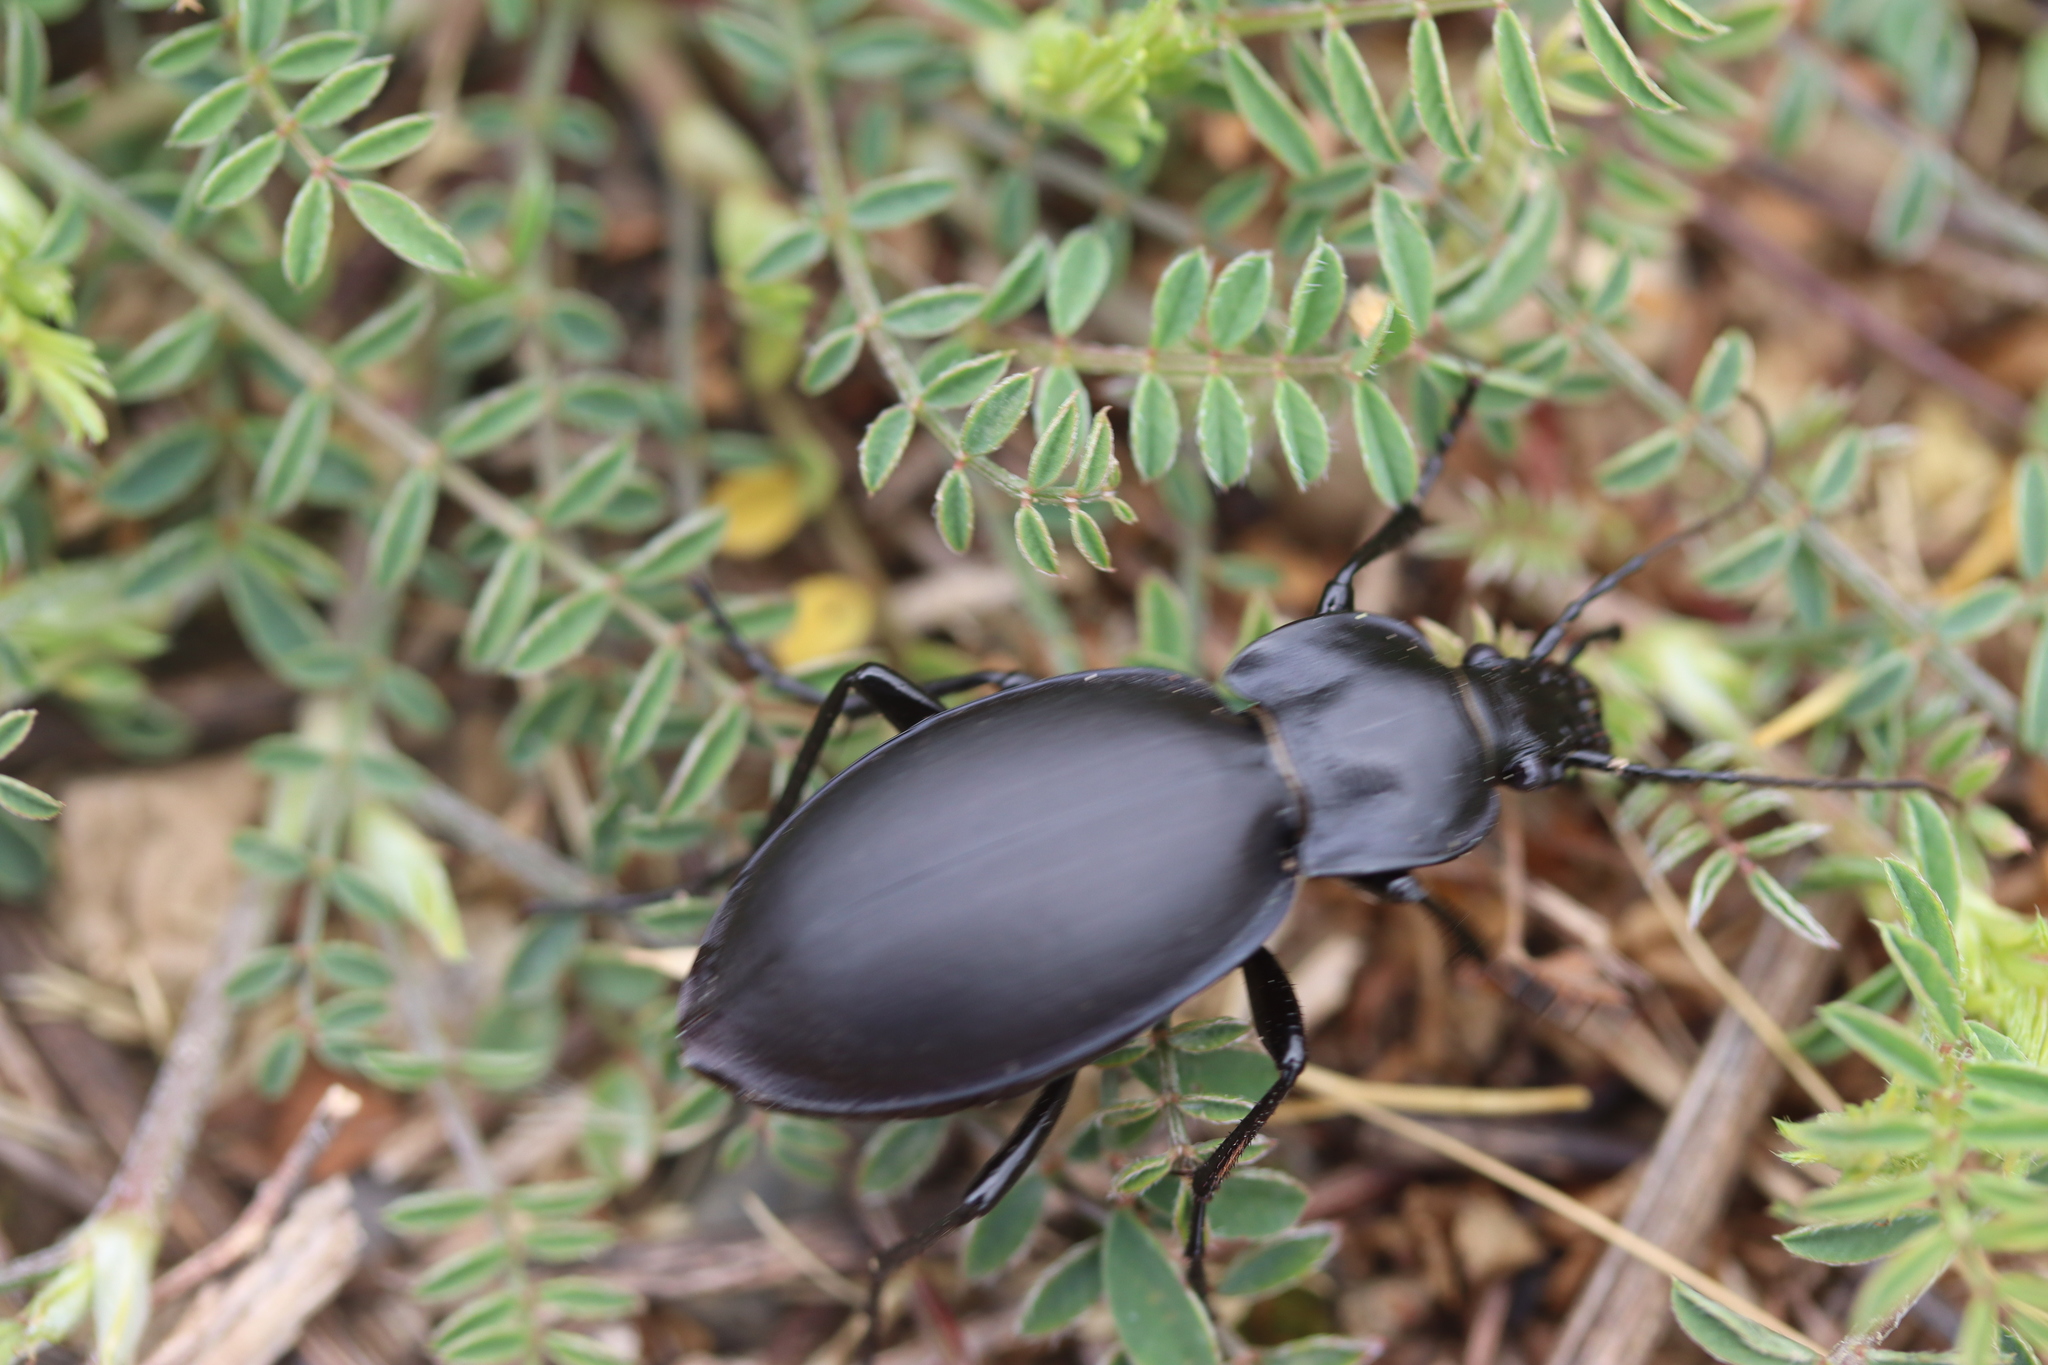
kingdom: Animalia
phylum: Arthropoda
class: Insecta
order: Coleoptera
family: Carabidae
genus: Carabus
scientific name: Carabus anatolicus
